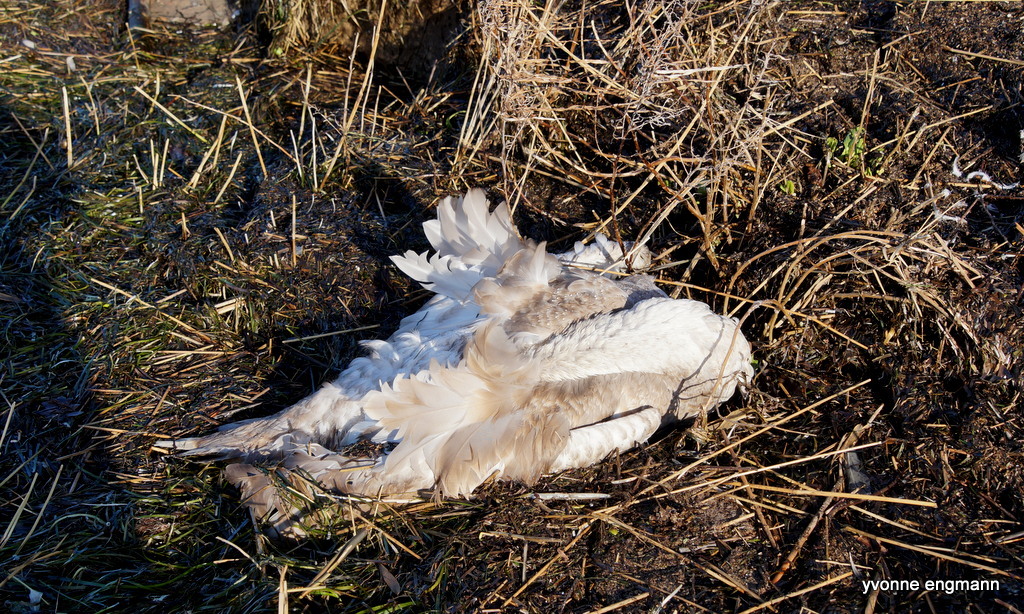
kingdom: Animalia
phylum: Chordata
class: Aves
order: Anseriformes
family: Anatidae
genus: Cygnus
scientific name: Cygnus olor
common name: Mute swan
